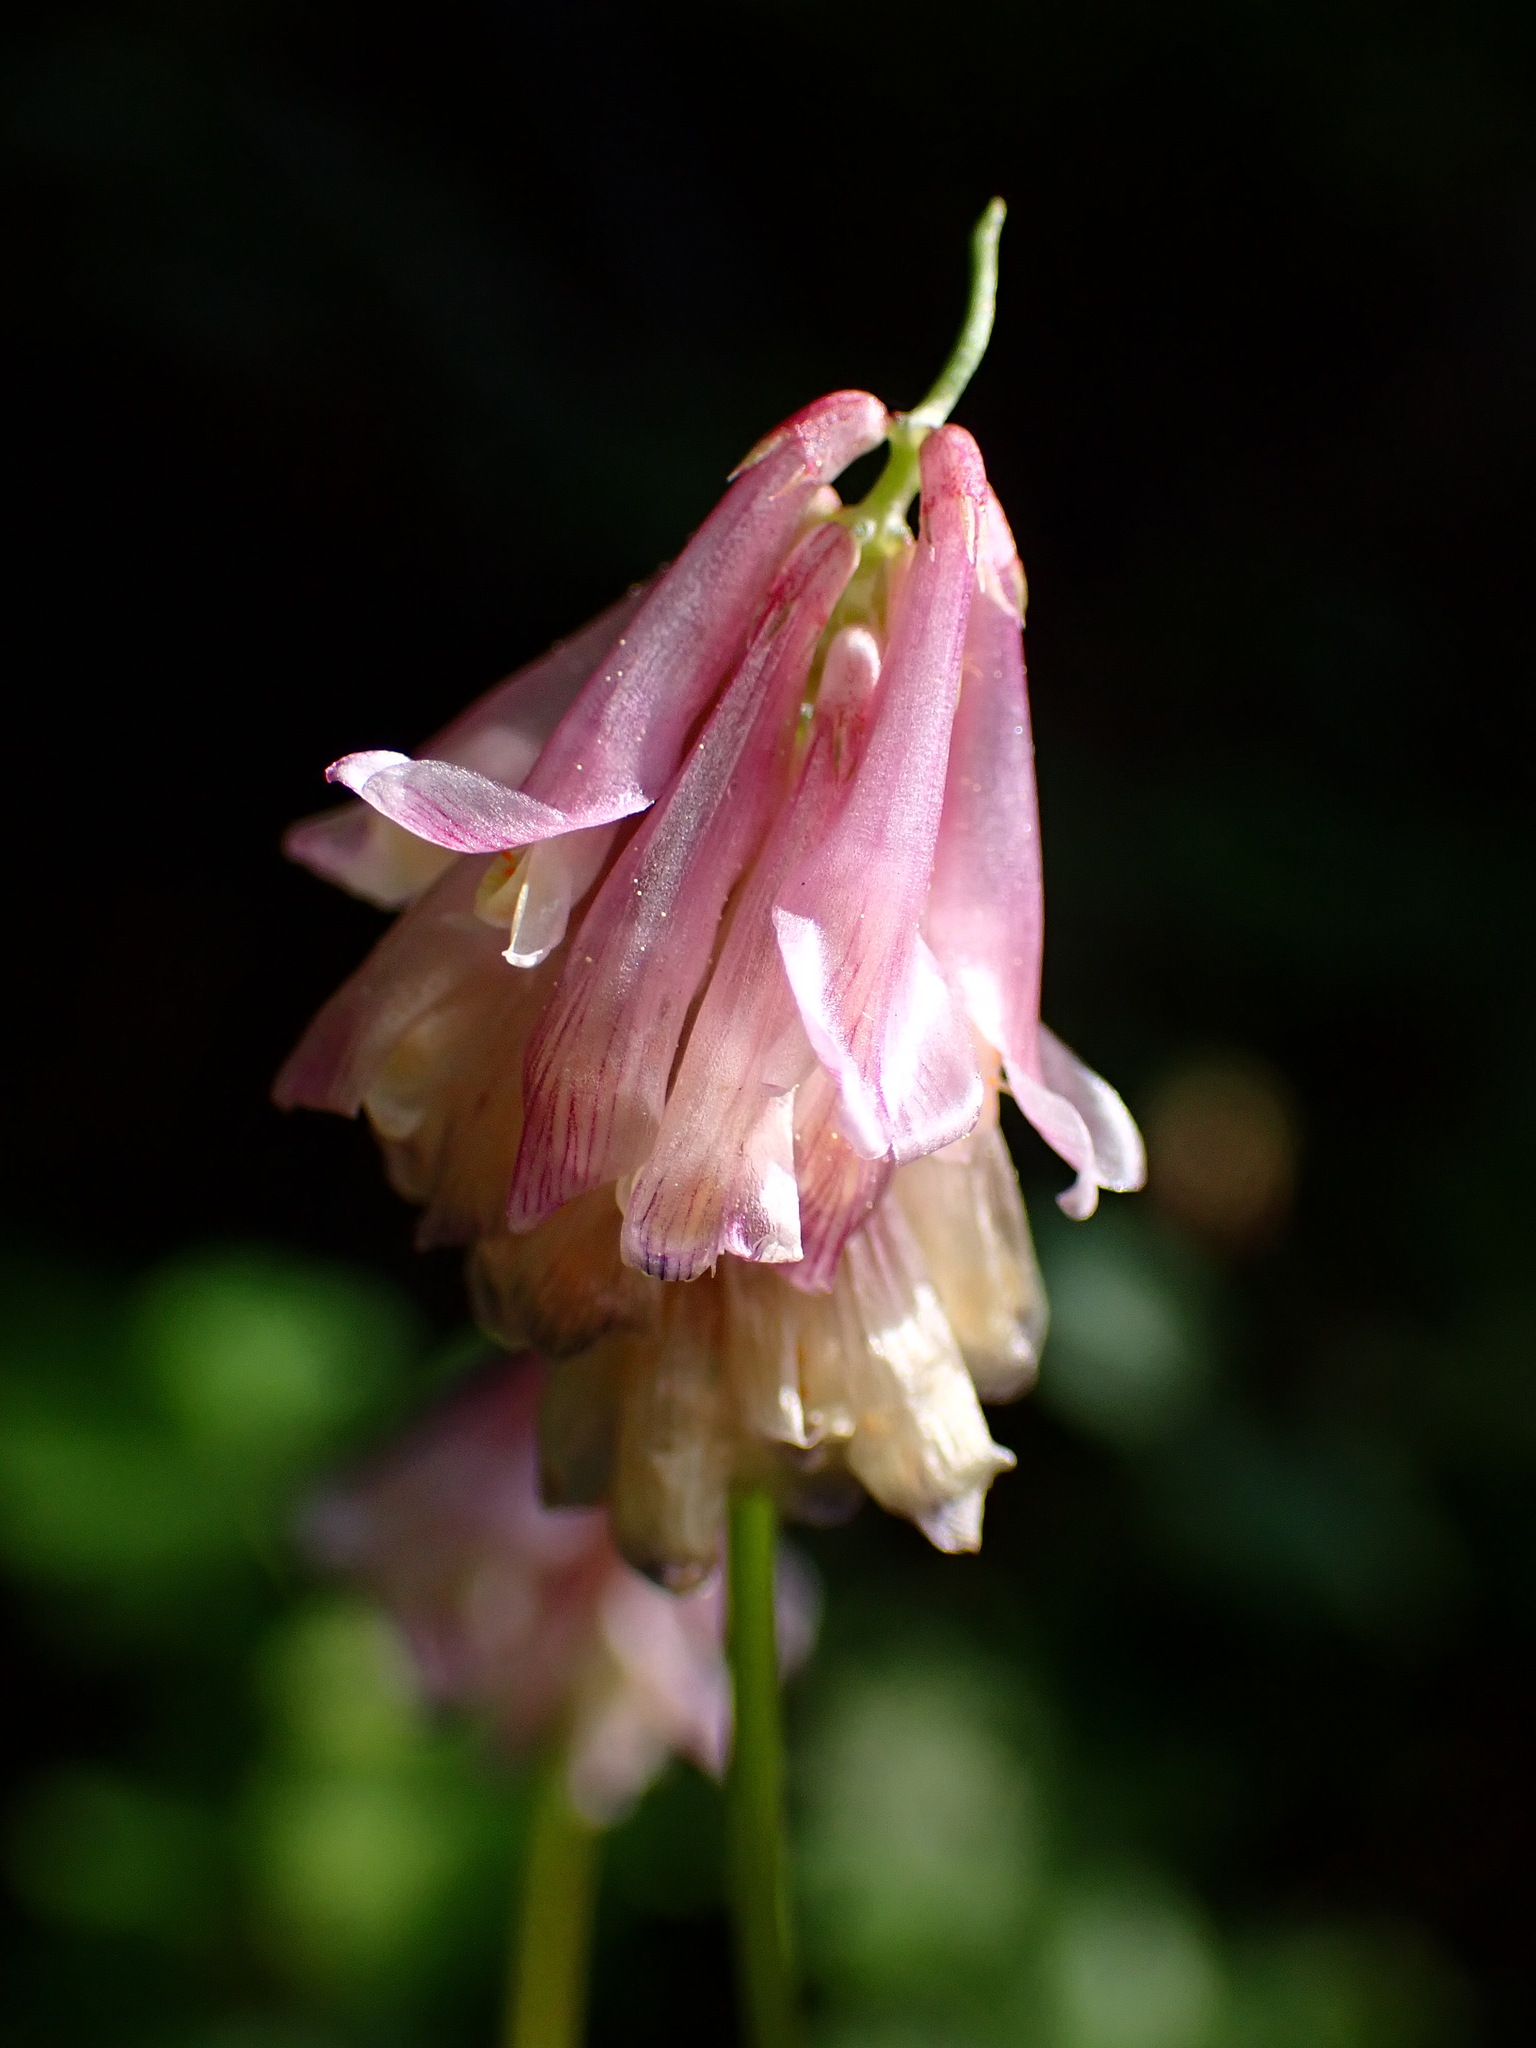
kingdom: Plantae
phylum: Tracheophyta
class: Magnoliopsida
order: Fabales
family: Fabaceae
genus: Trifolium
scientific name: Trifolium productum
